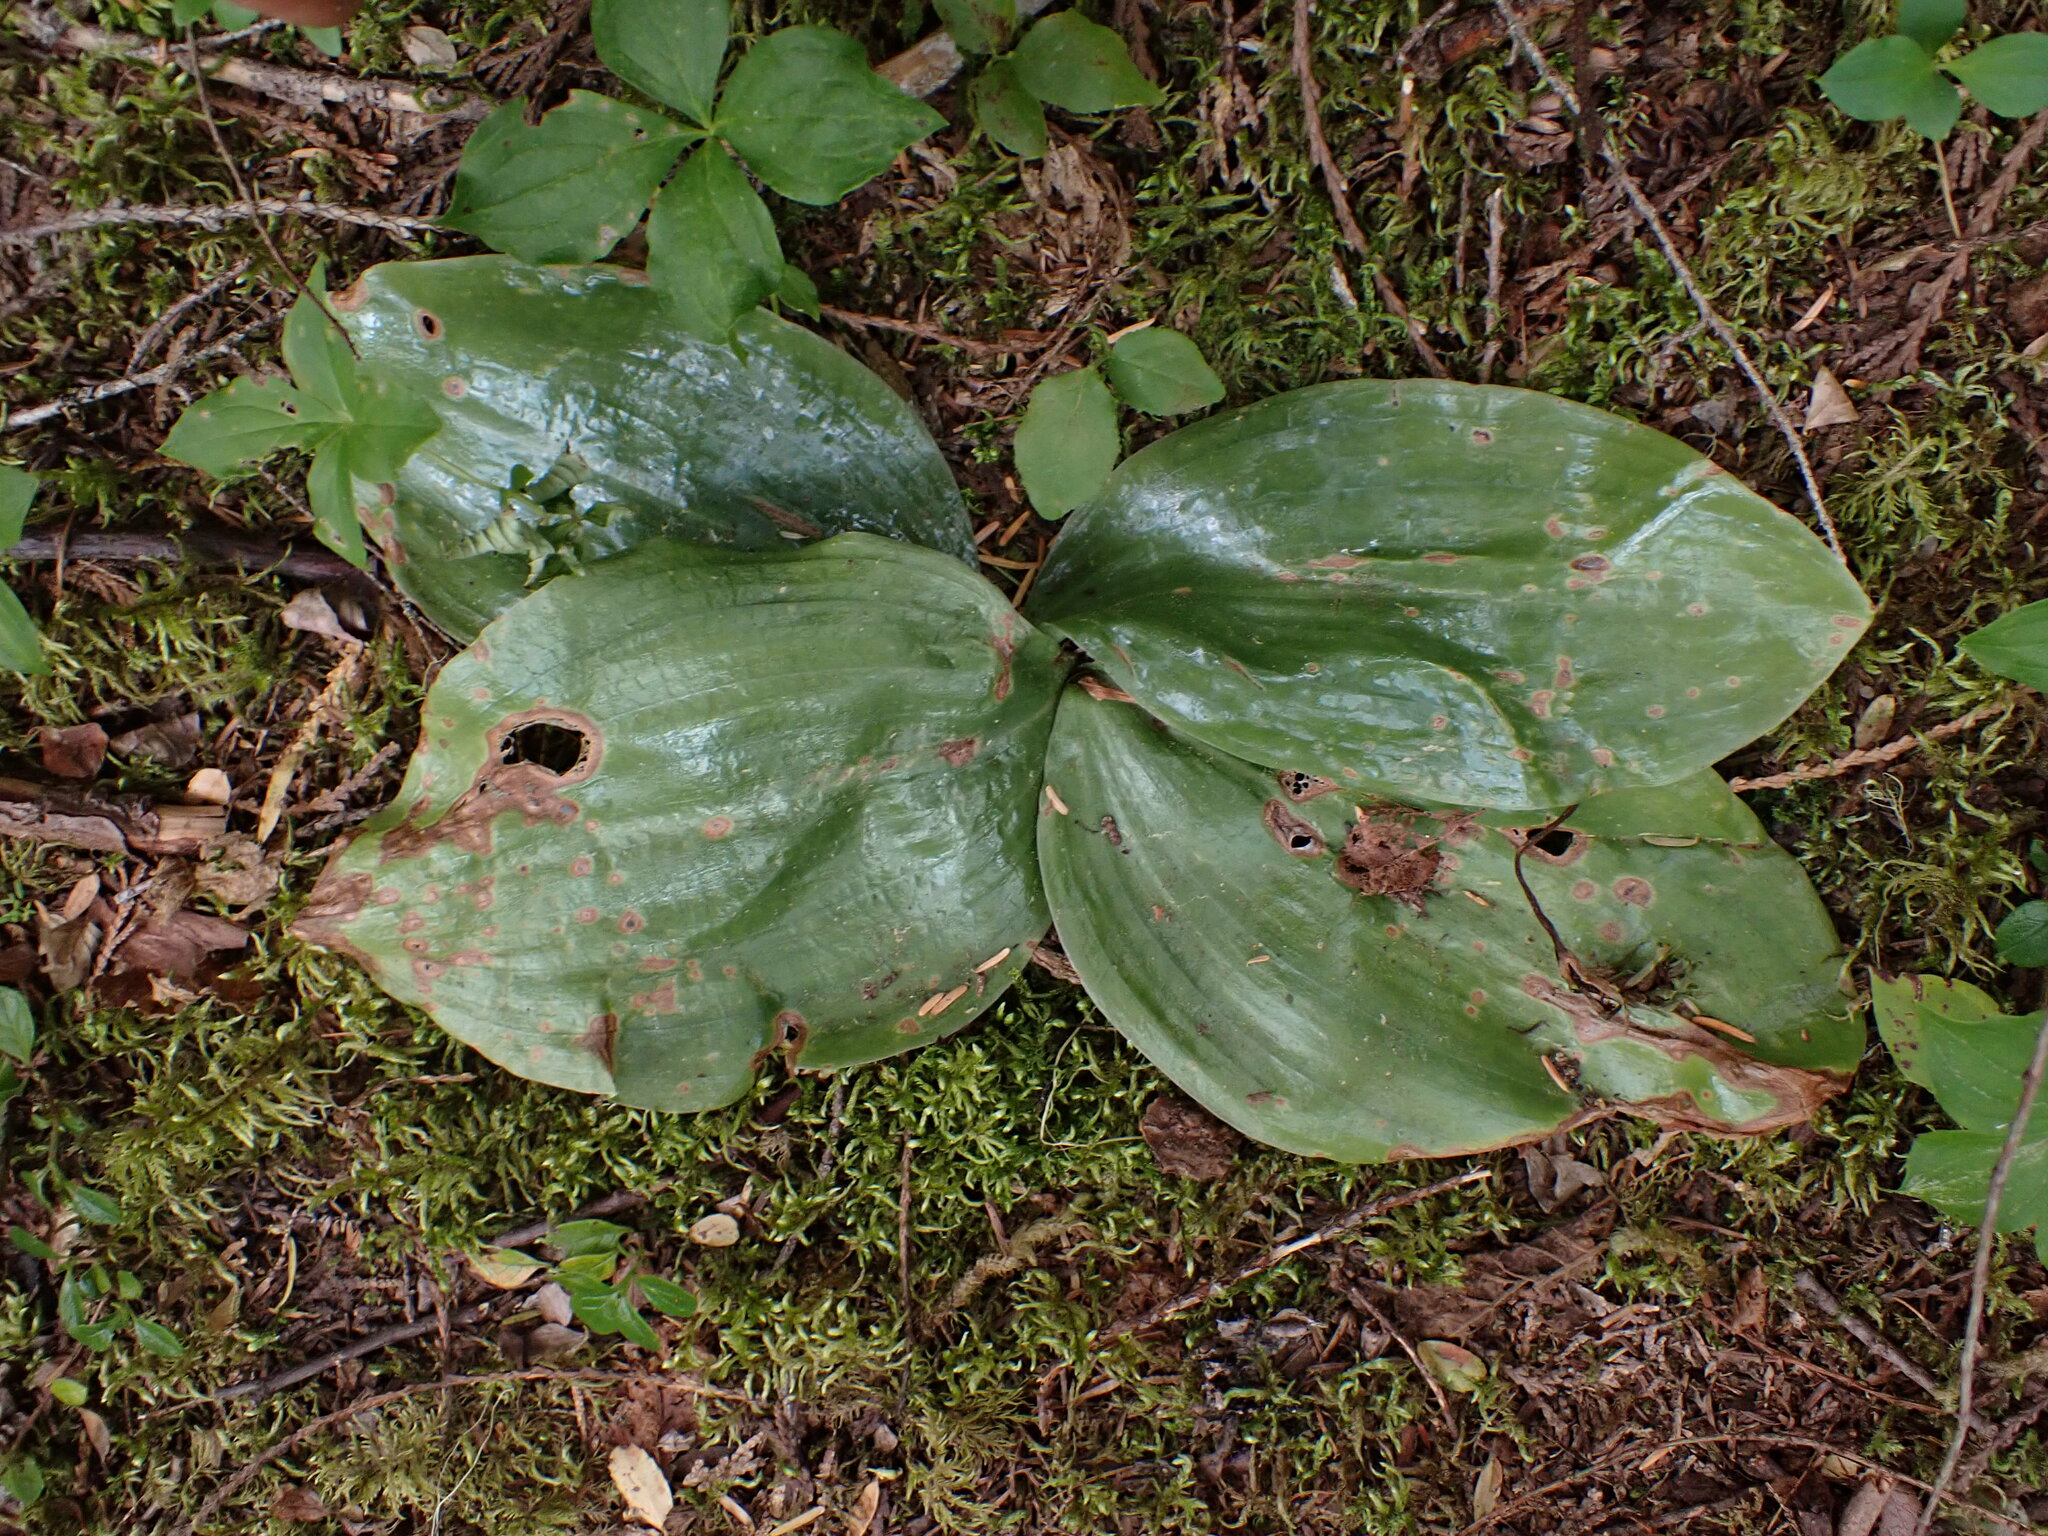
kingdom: Plantae
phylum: Tracheophyta
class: Liliopsida
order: Asparagales
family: Orchidaceae
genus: Platanthera
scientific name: Platanthera orbiculata
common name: Large round-leaved orchid
